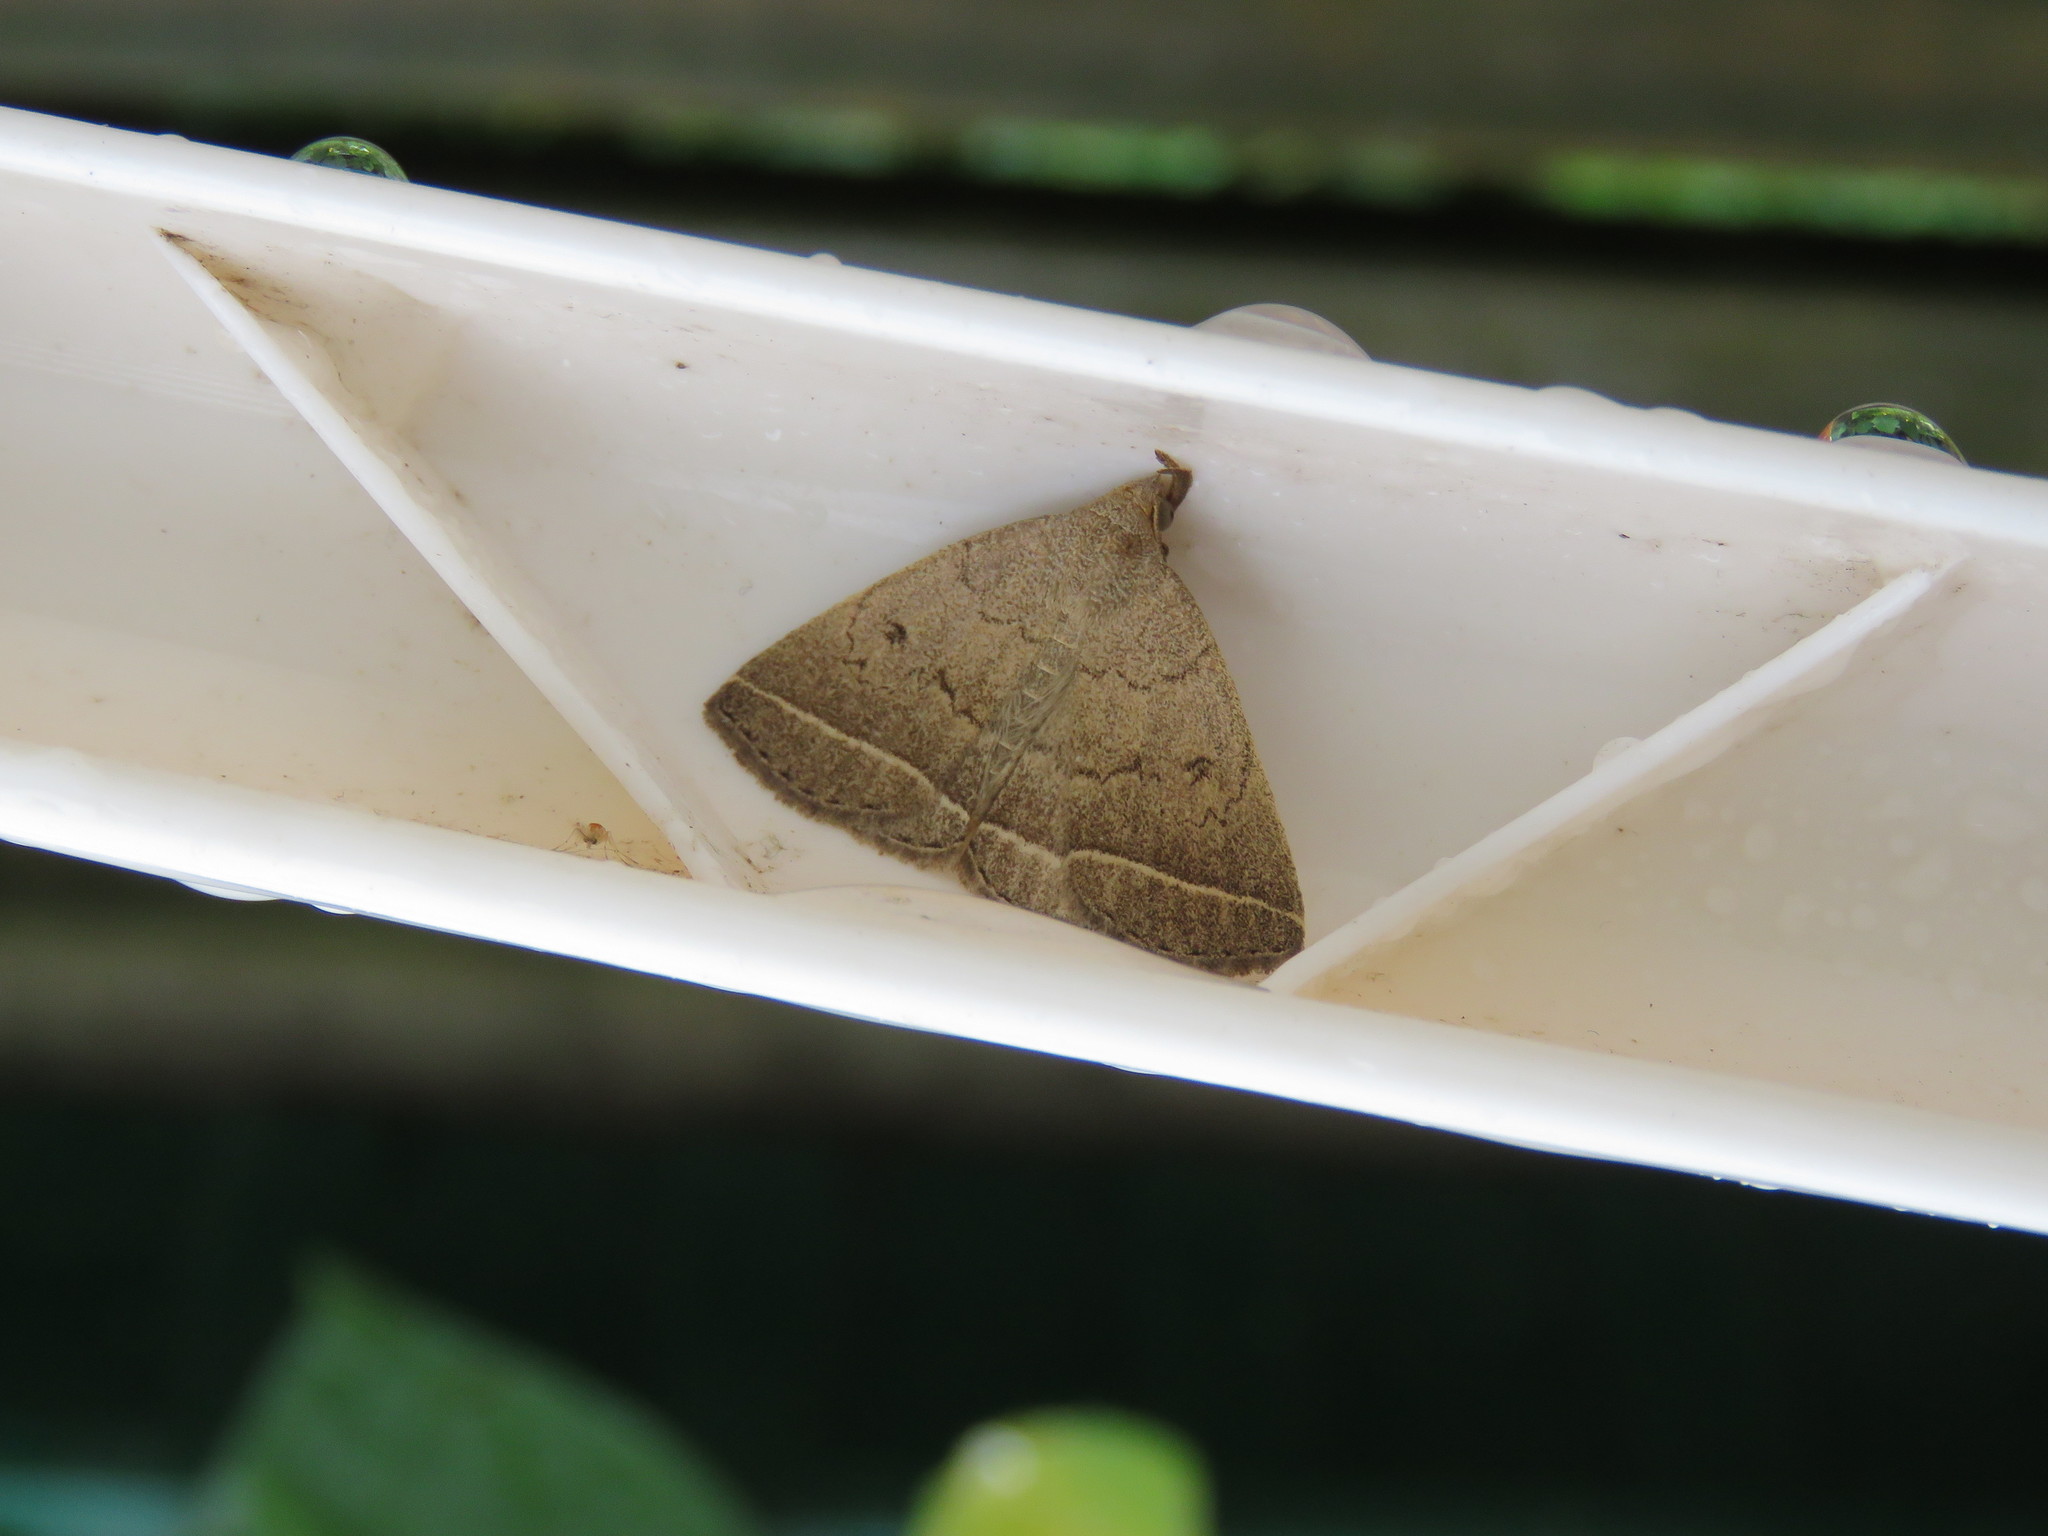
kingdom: Animalia
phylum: Arthropoda
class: Insecta
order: Lepidoptera
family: Erebidae
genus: Zanclognatha
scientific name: Zanclognatha jacchusalis
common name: Yellowish zanclognatha
